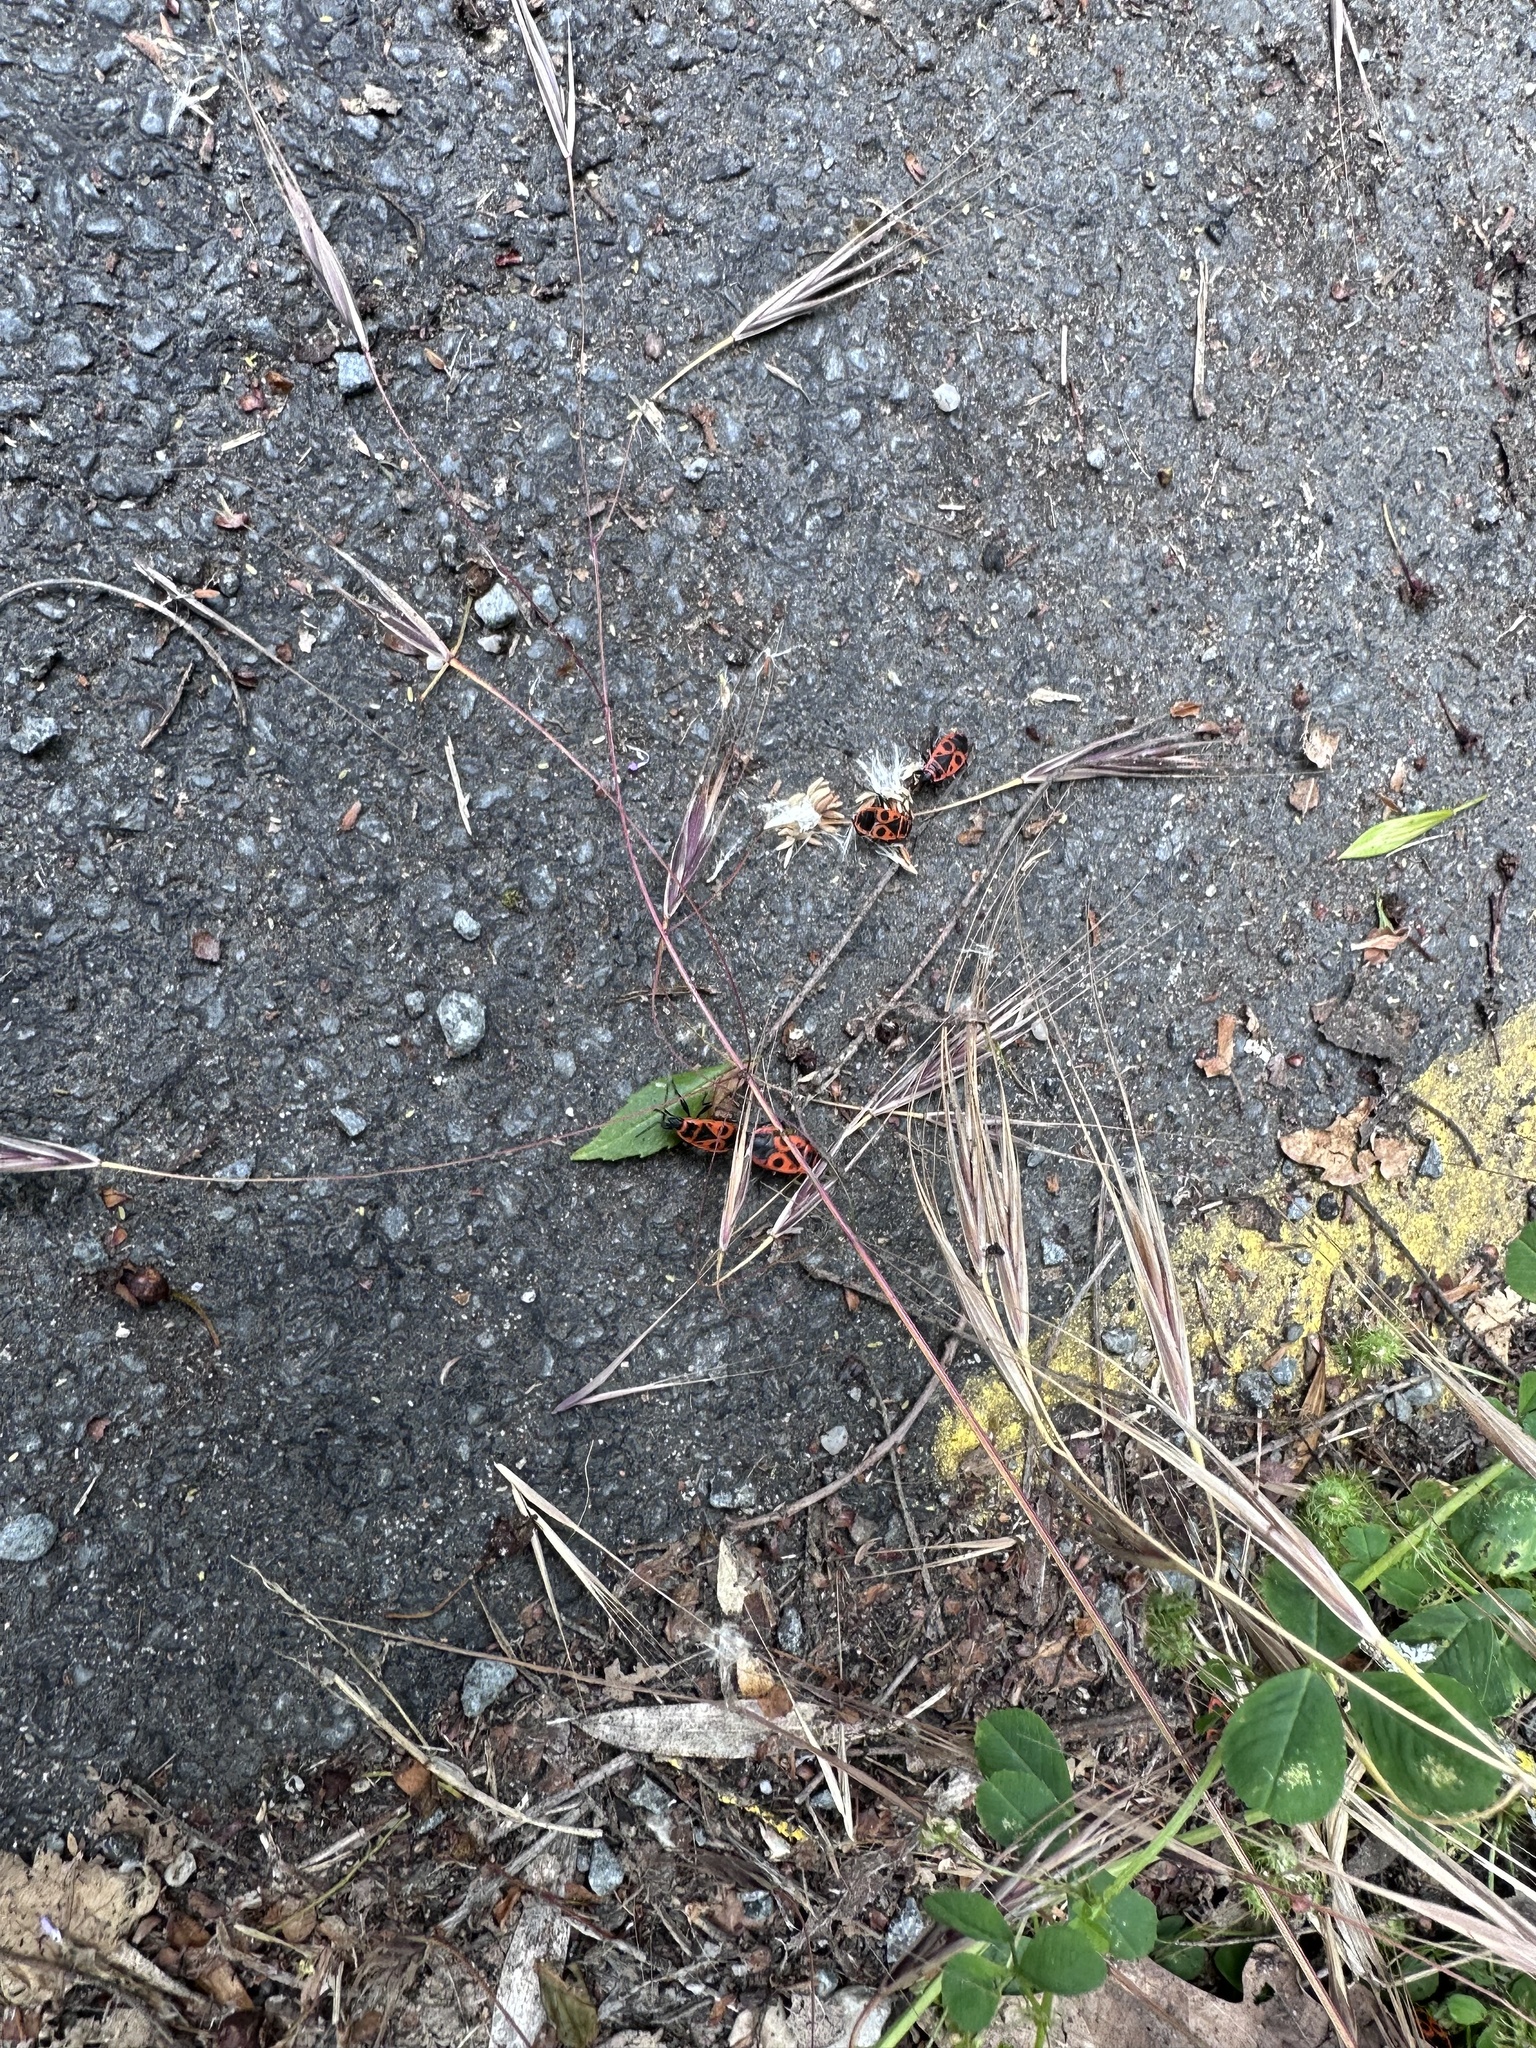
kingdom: Animalia
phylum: Arthropoda
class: Insecta
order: Hemiptera
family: Pyrrhocoridae
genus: Pyrrhocoris
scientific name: Pyrrhocoris apterus
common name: Firebug
